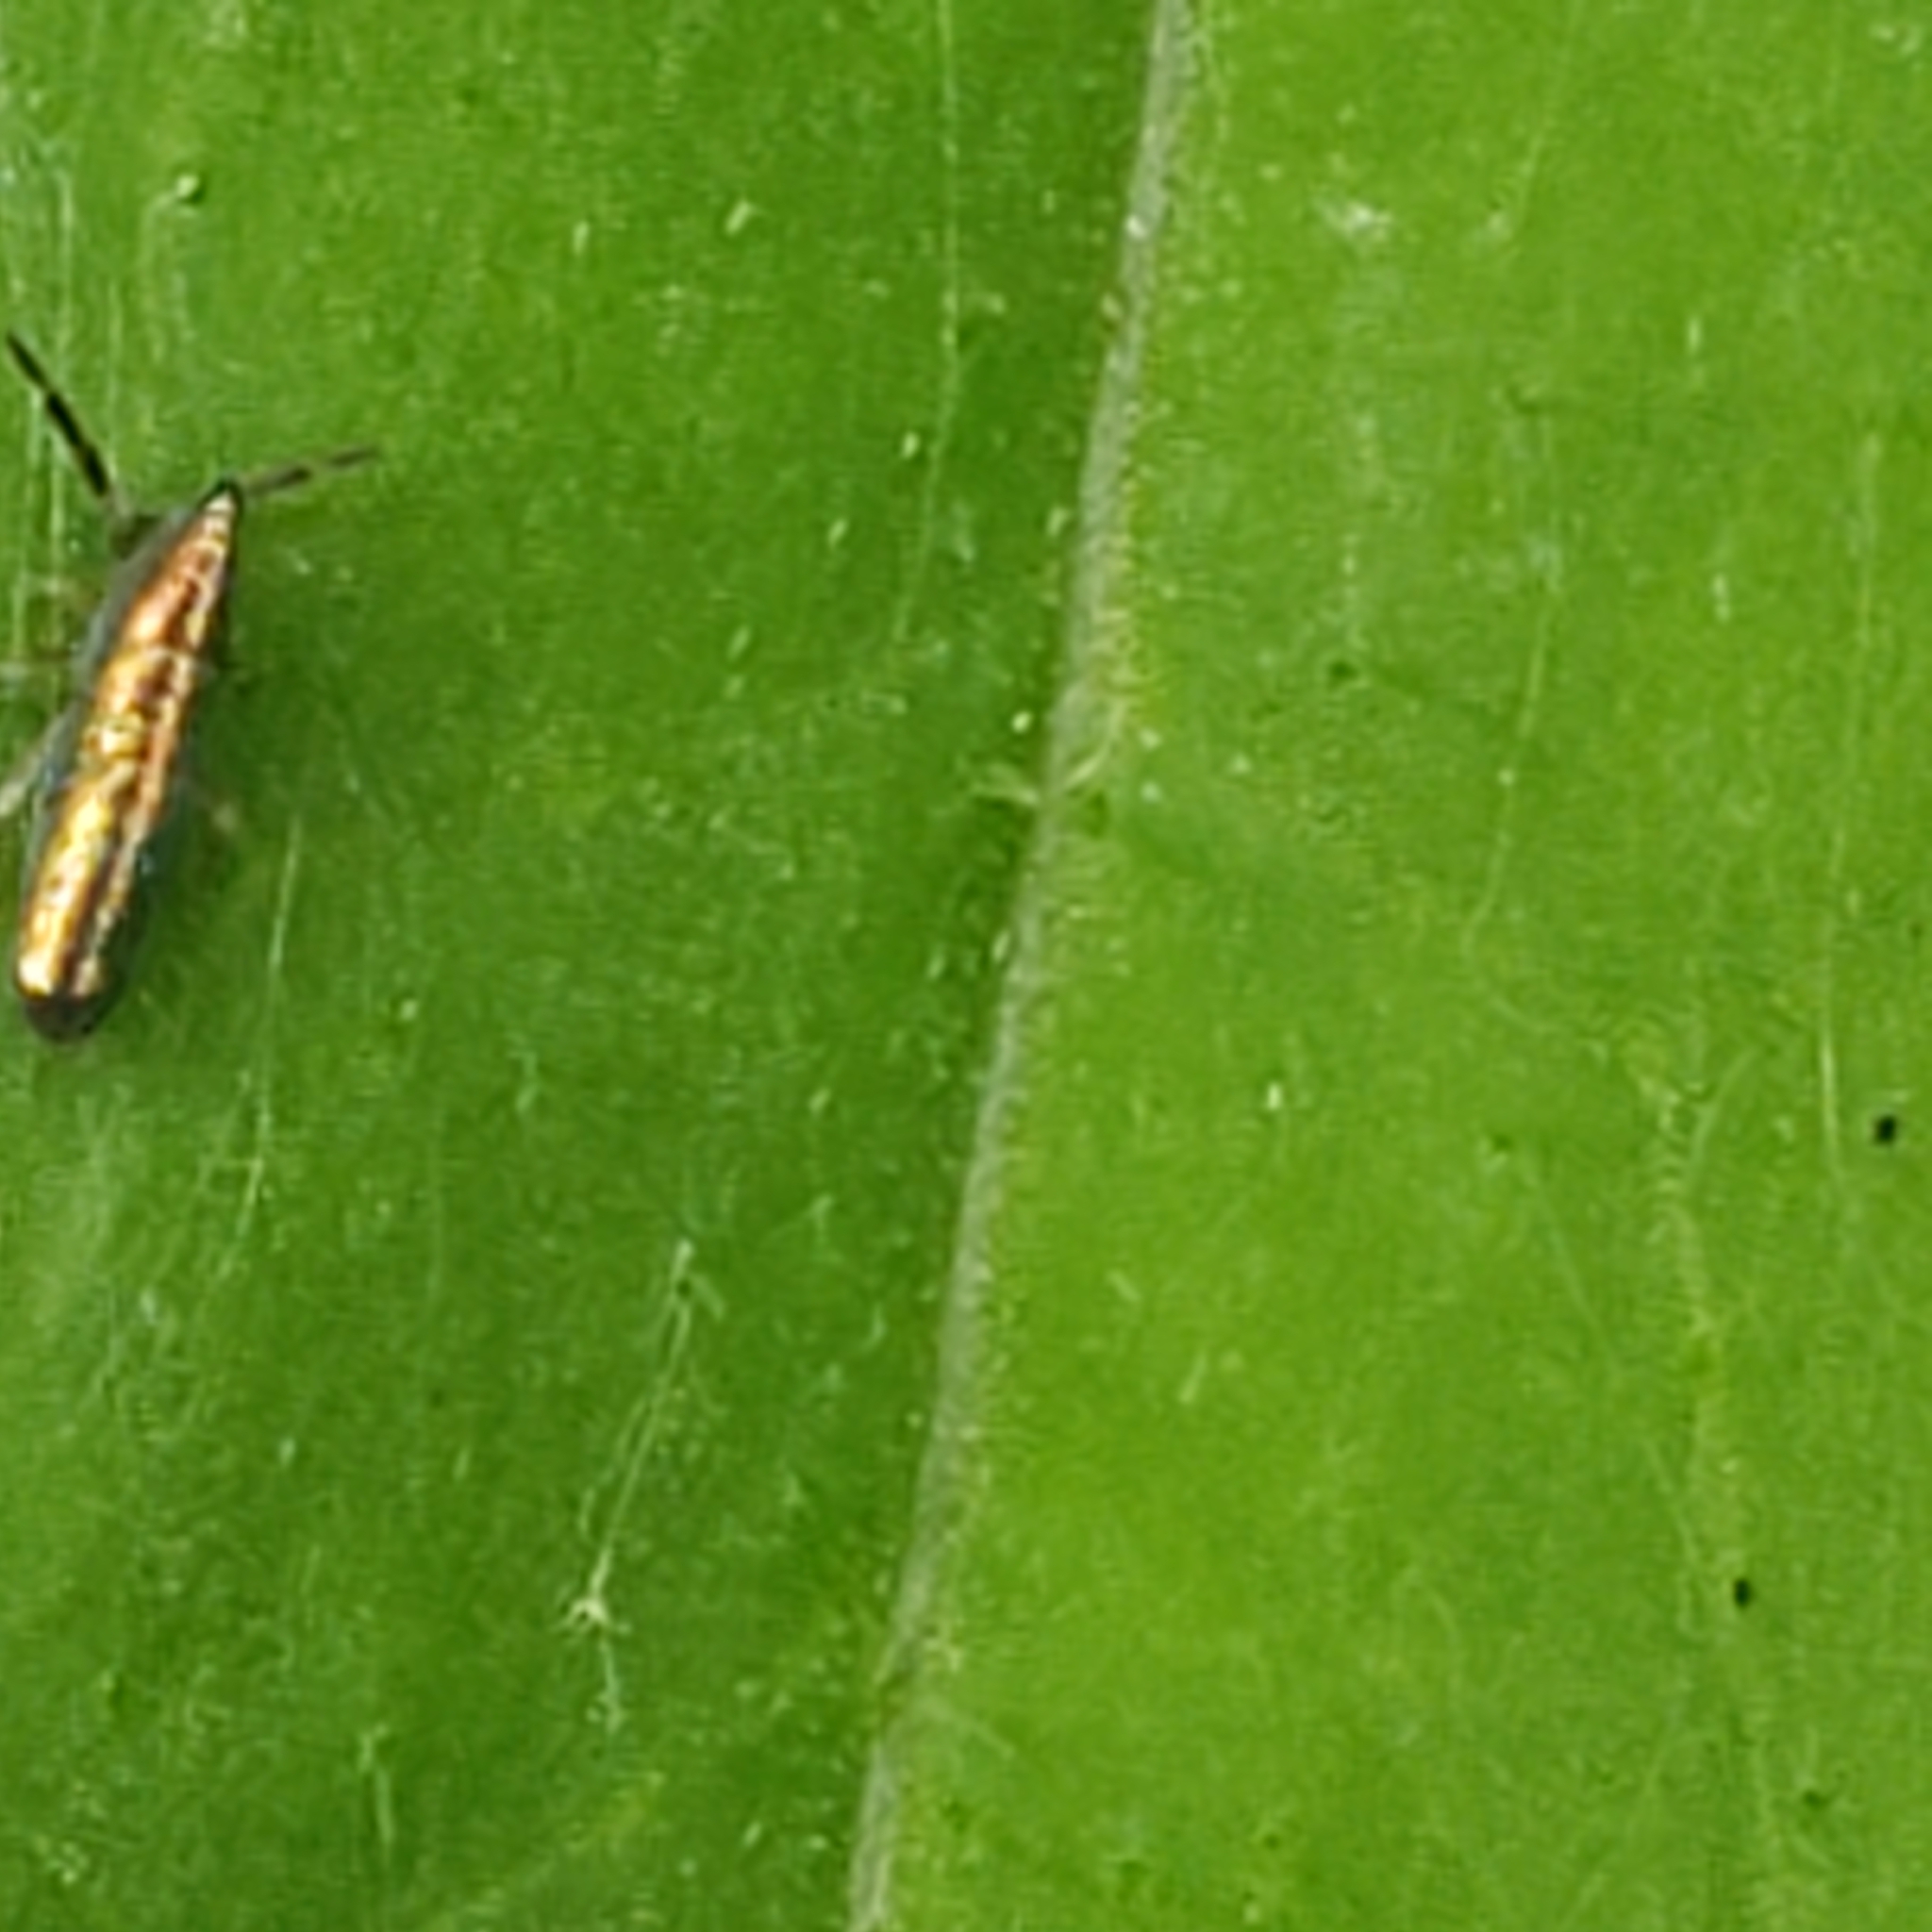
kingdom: Animalia
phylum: Arthropoda
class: Collembola
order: Entomobryomorpha
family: Entomobryidae
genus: Lepidocyrtus
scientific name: Lepidocyrtus paradoxus
